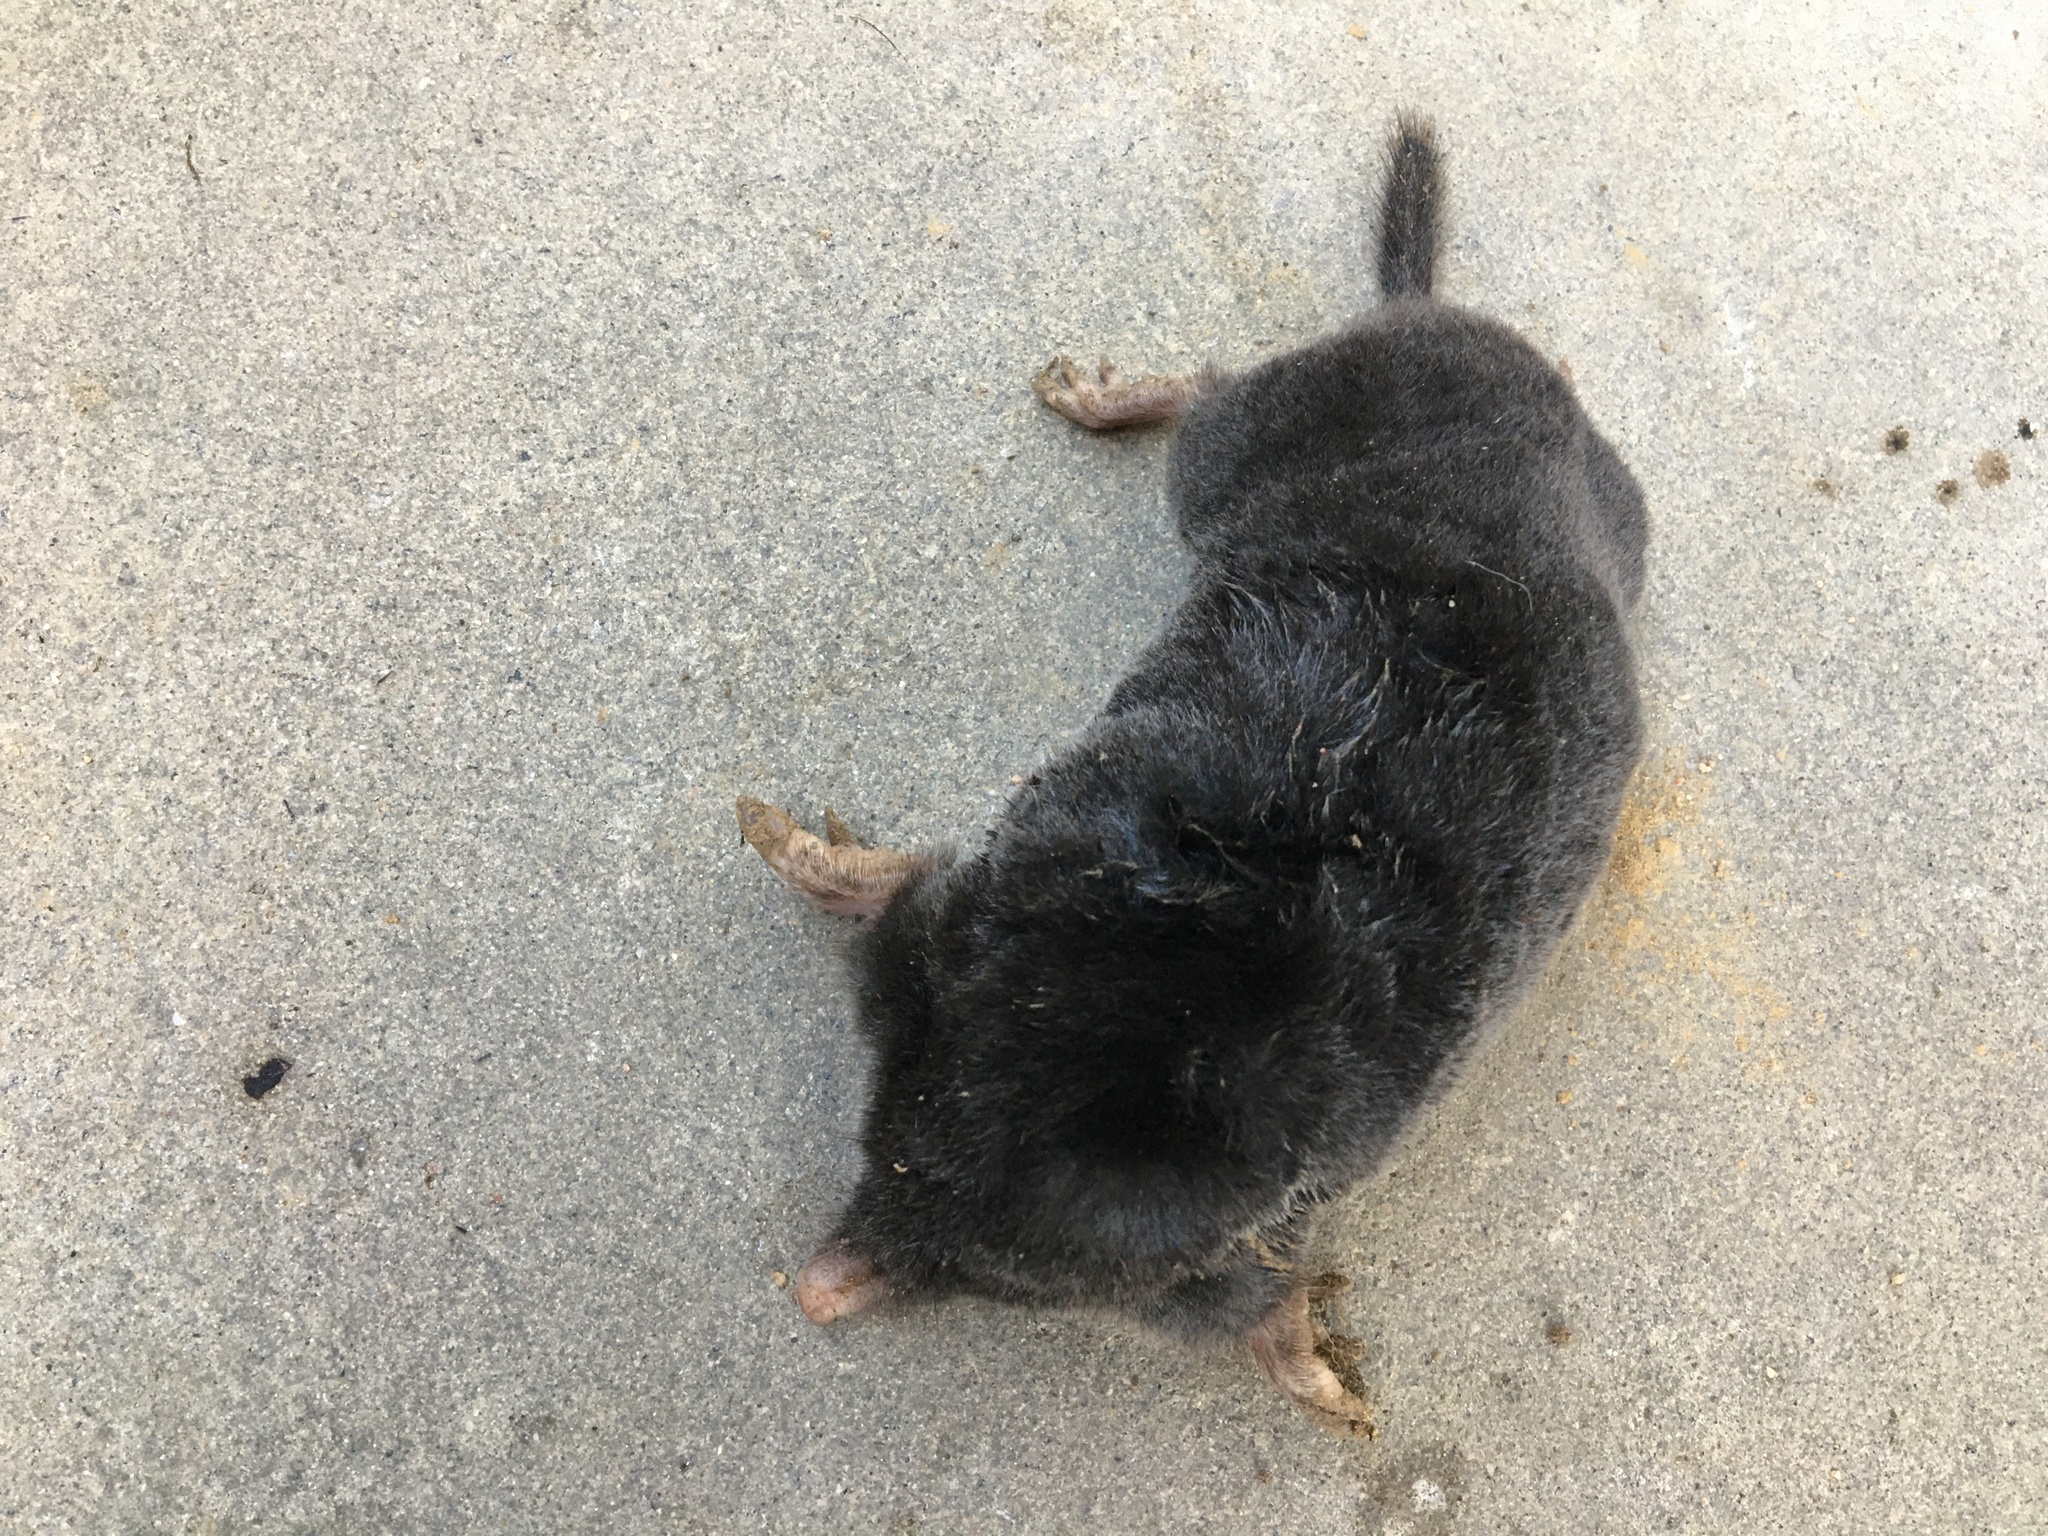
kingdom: Animalia
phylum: Chordata
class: Mammalia
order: Soricomorpha
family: Talpidae
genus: Talpa
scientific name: Talpa europaea
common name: European mole
